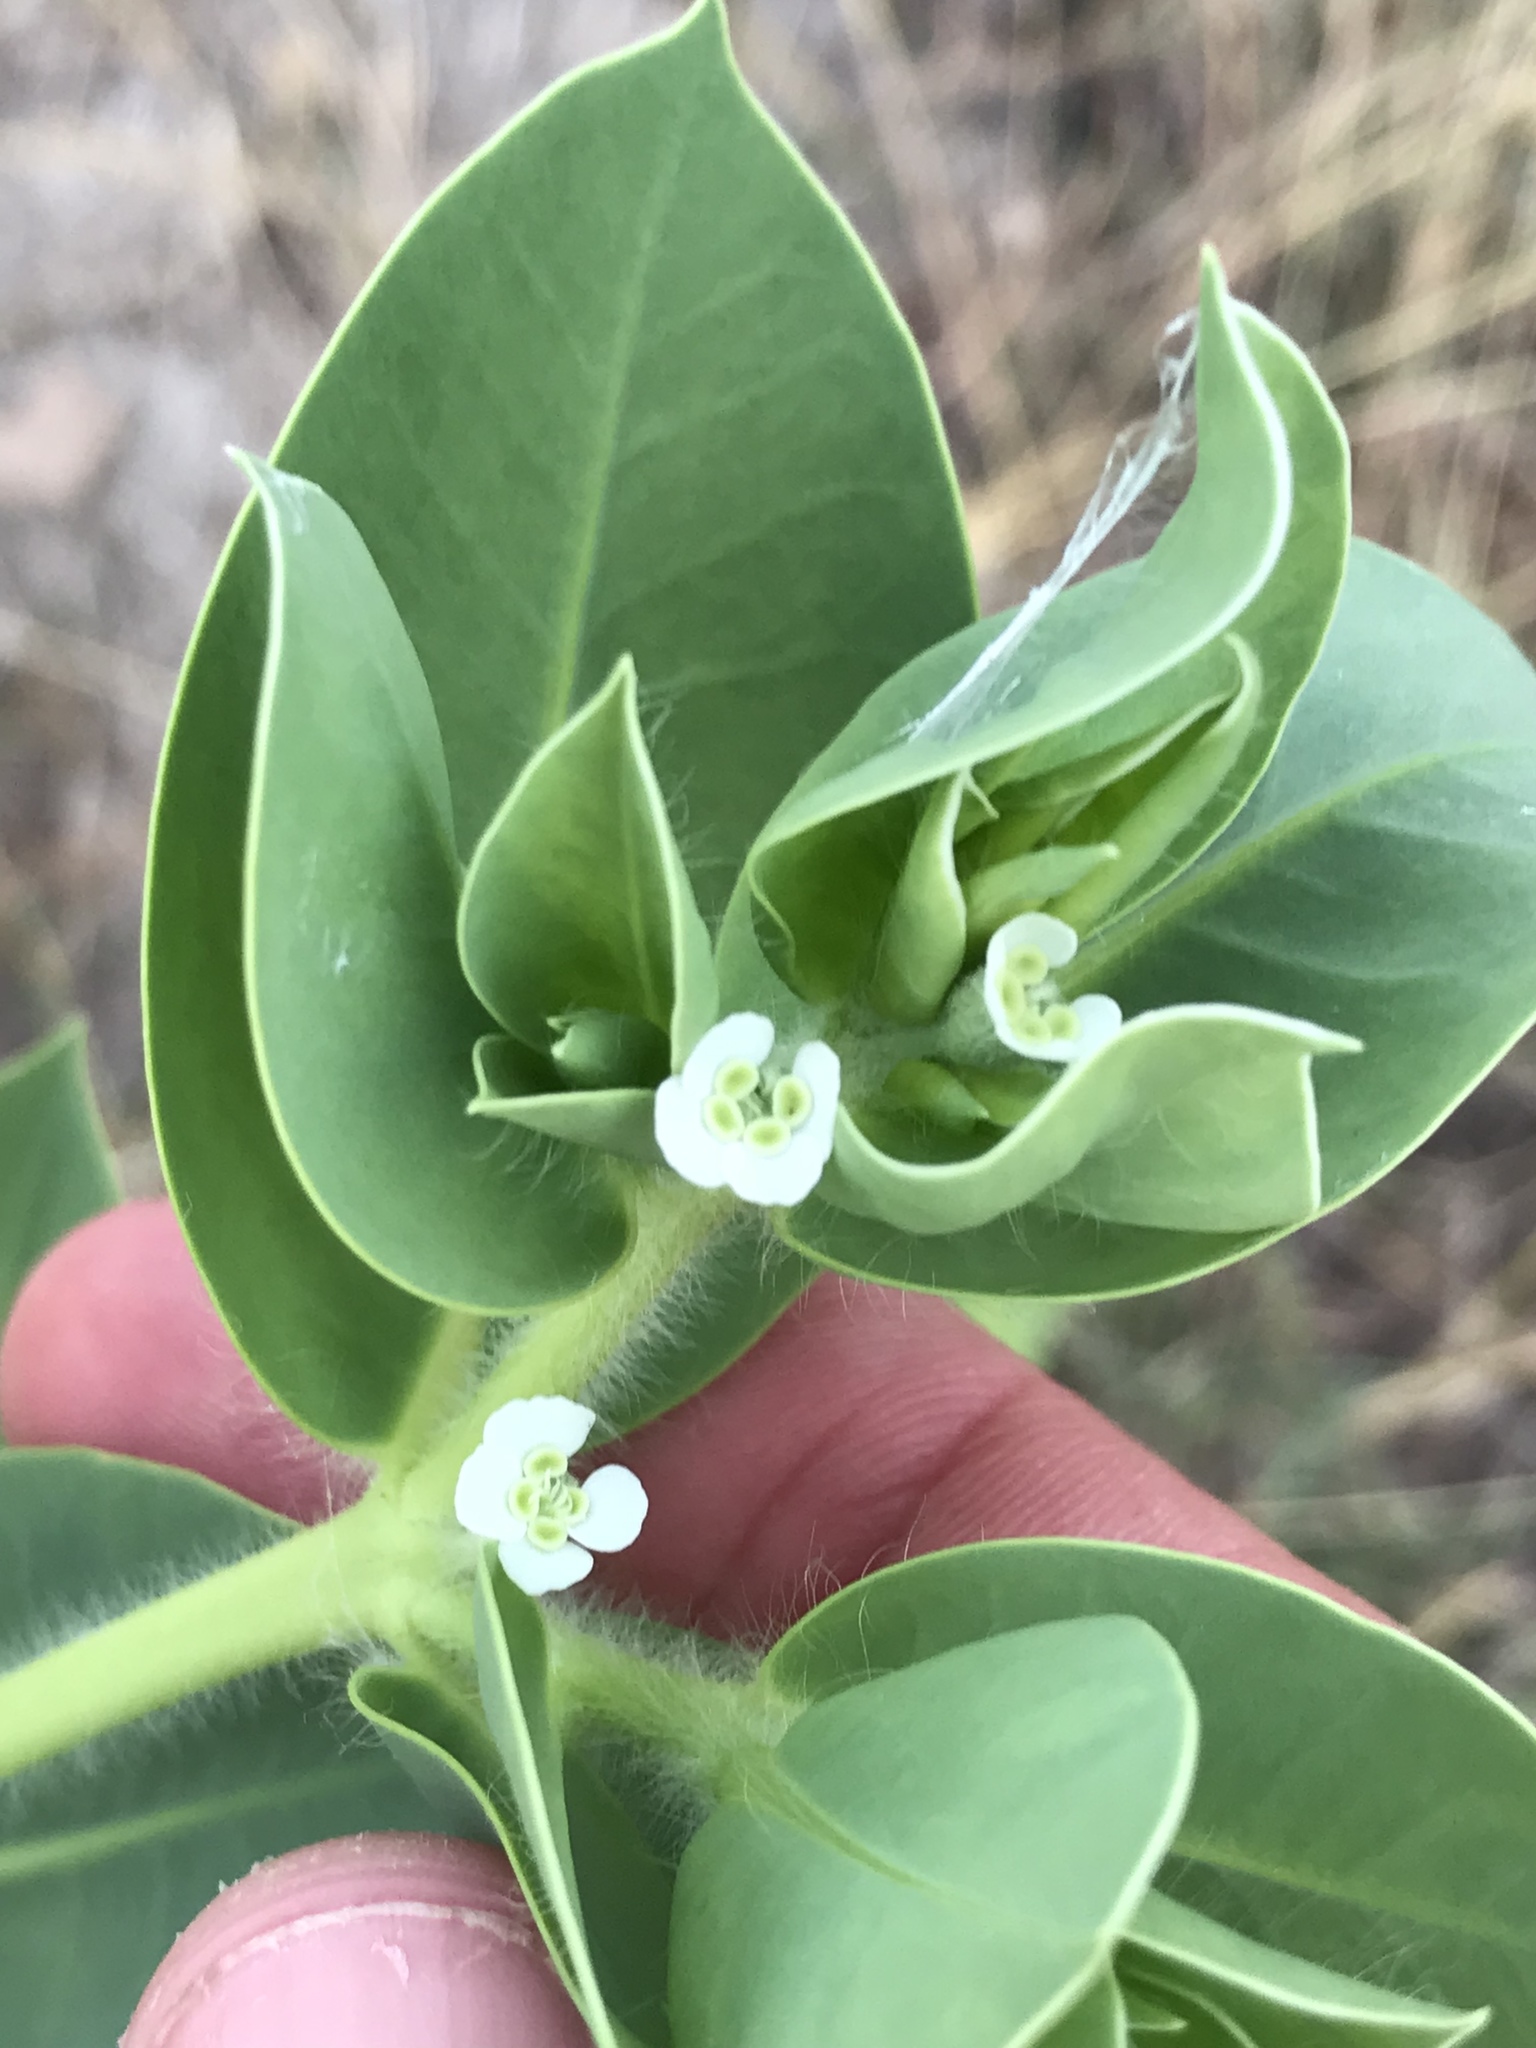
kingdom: Plantae
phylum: Tracheophyta
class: Magnoliopsida
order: Malpighiales
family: Euphorbiaceae
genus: Euphorbia
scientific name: Euphorbia marginata
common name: Ghostweed
